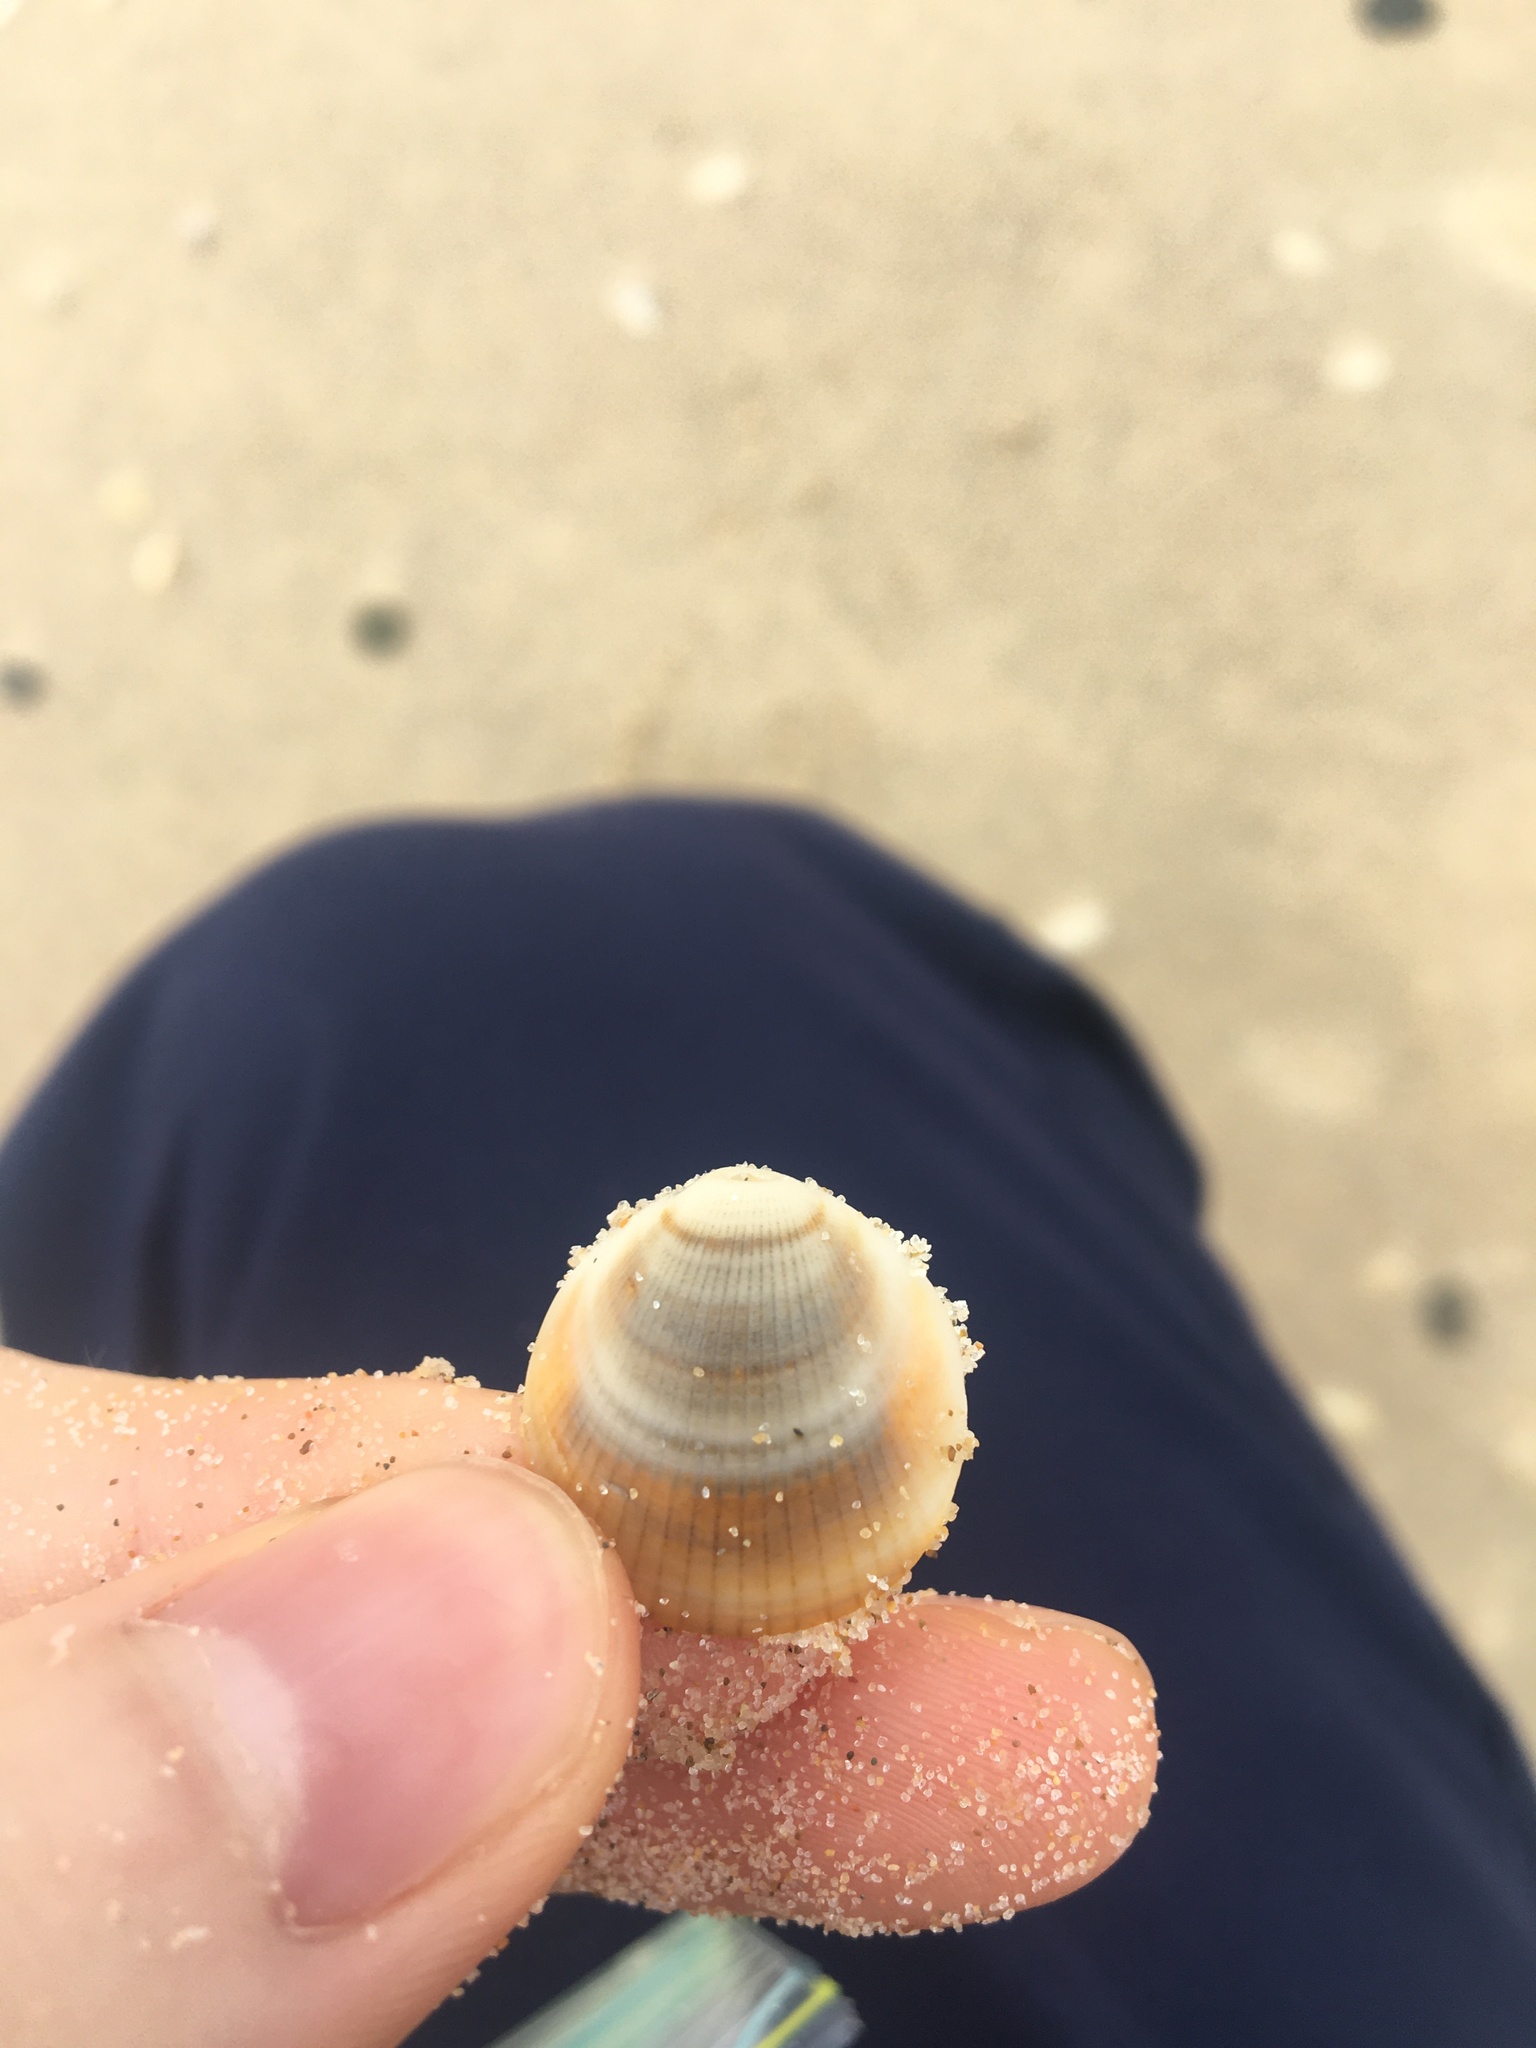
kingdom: Animalia
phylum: Mollusca
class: Bivalvia
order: Arcida
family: Glycymerididae
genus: Glycymeris
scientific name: Glycymeris grayana
